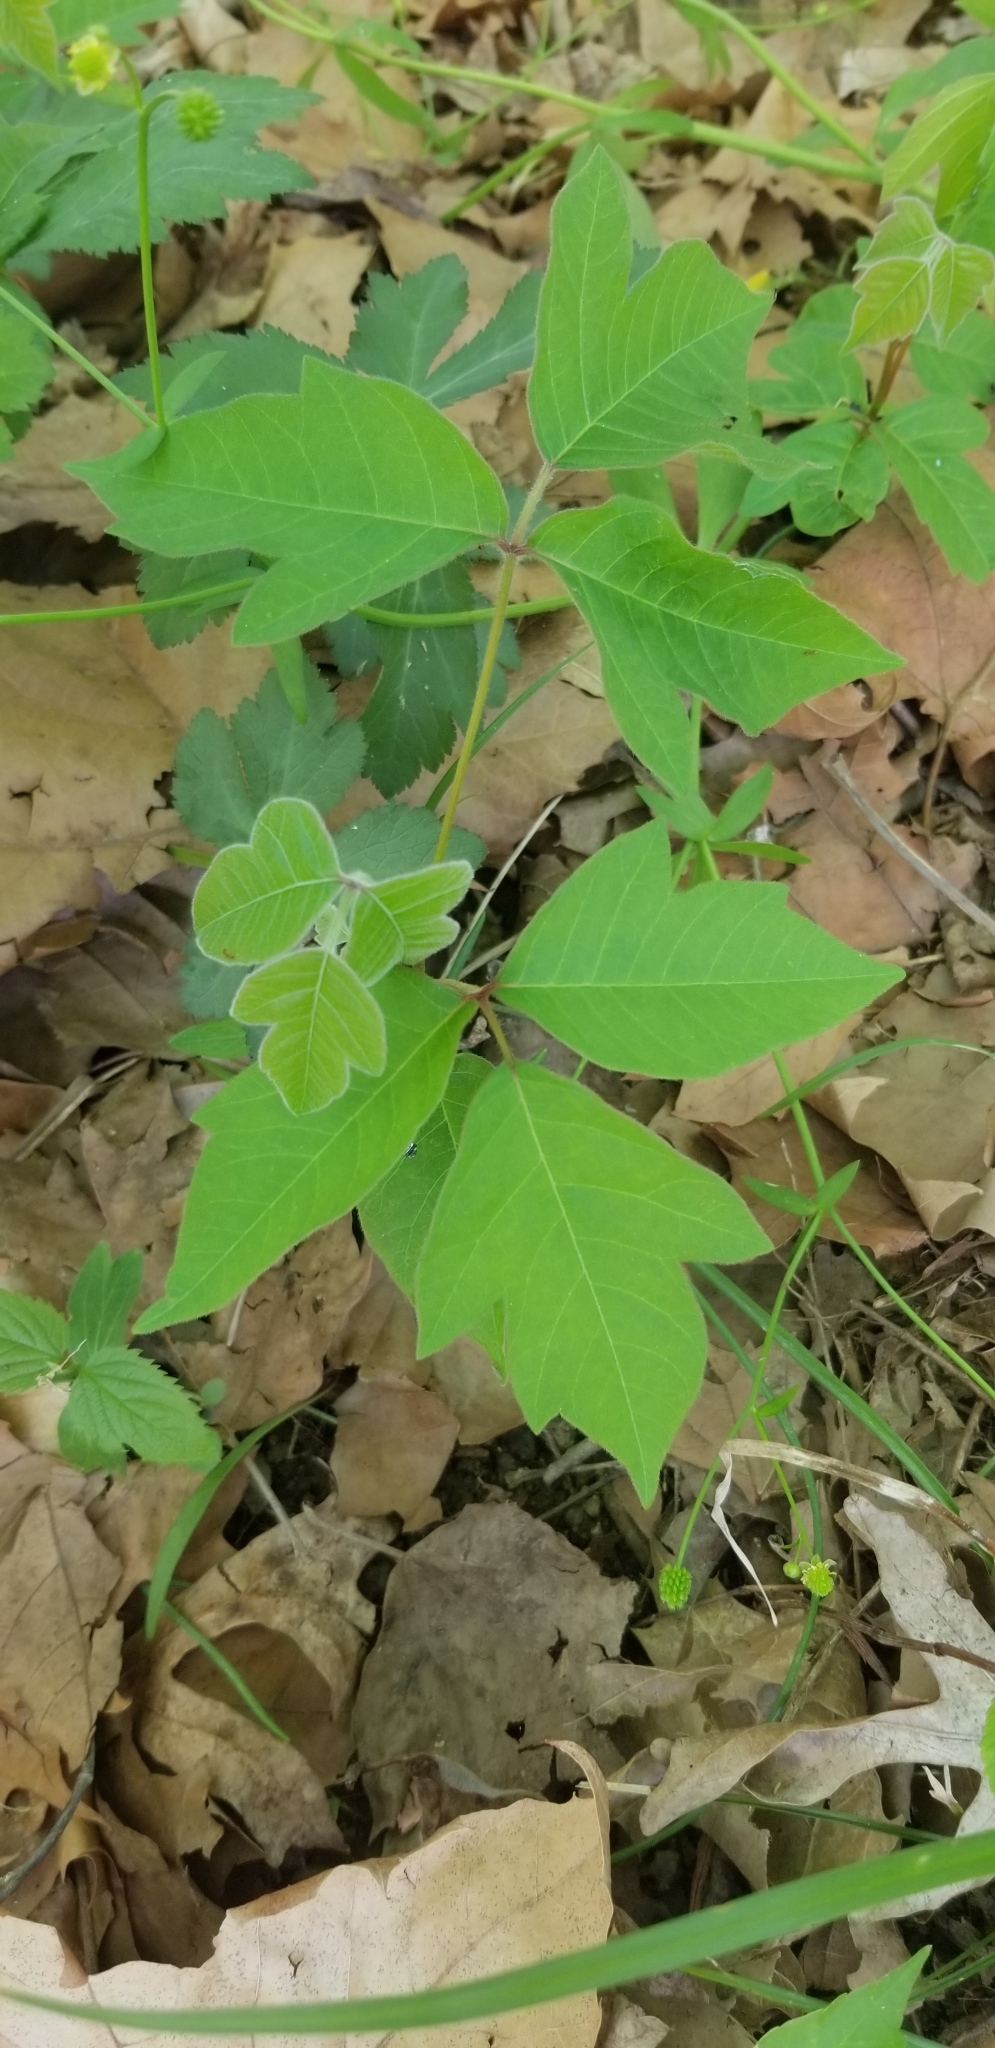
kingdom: Plantae
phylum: Tracheophyta
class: Magnoliopsida
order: Sapindales
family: Anacardiaceae
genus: Toxicodendron
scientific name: Toxicodendron radicans
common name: Poison ivy
